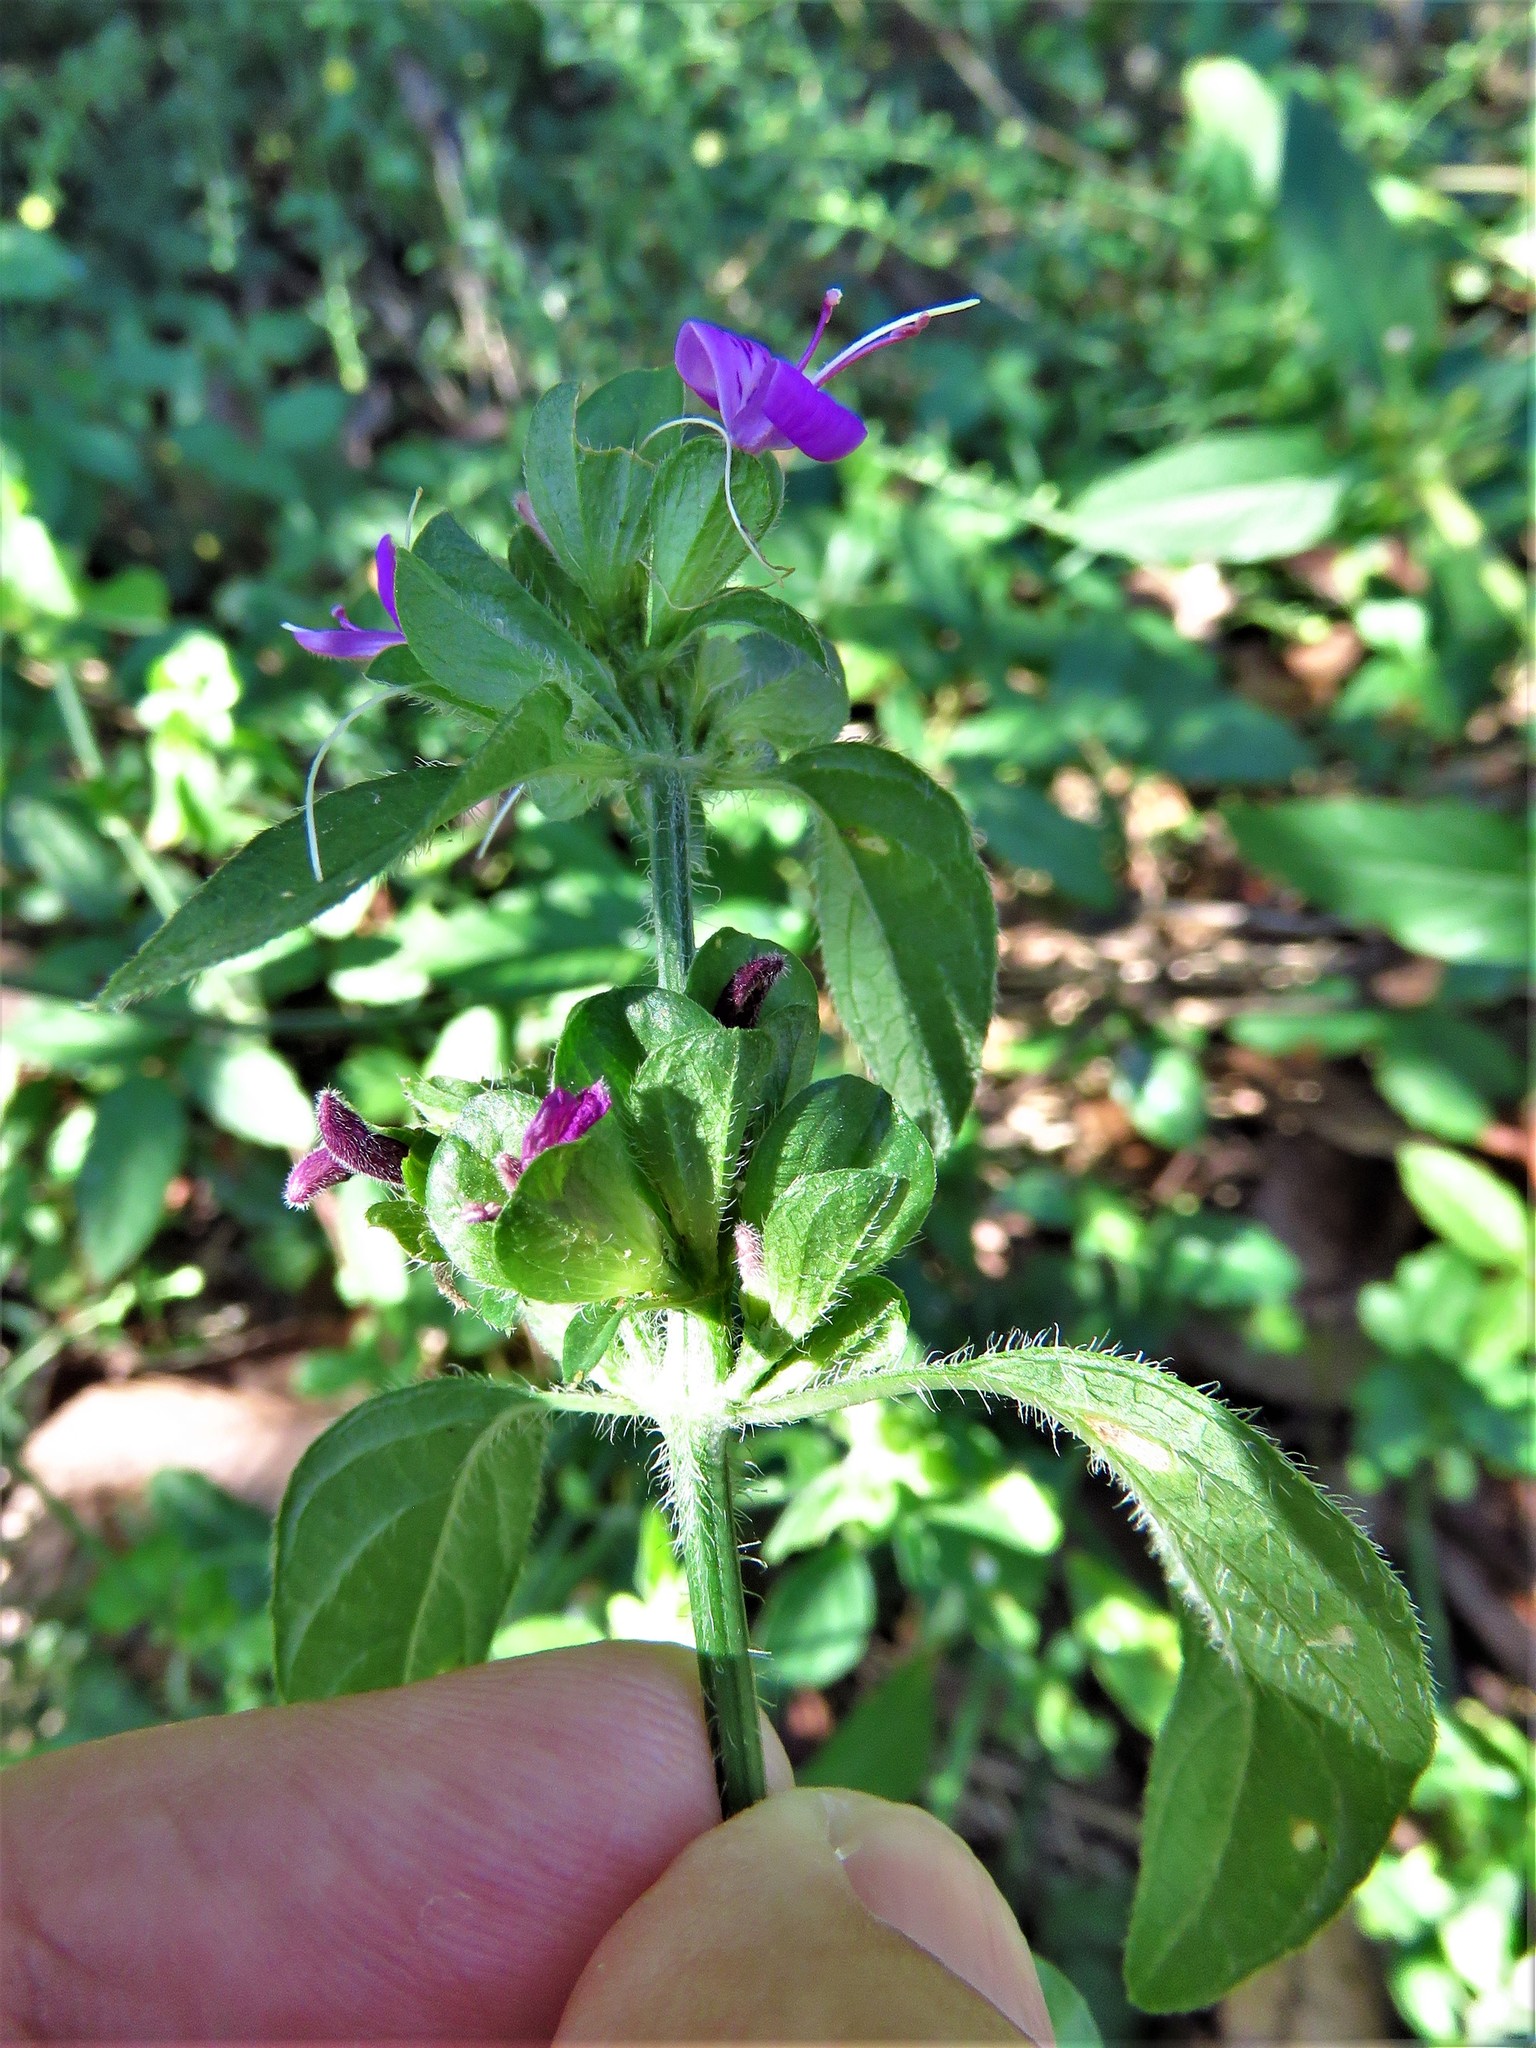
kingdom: Plantae
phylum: Tracheophyta
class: Magnoliopsida
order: Lamiales
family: Acanthaceae
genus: Dicliptera
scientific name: Dicliptera brachiata
